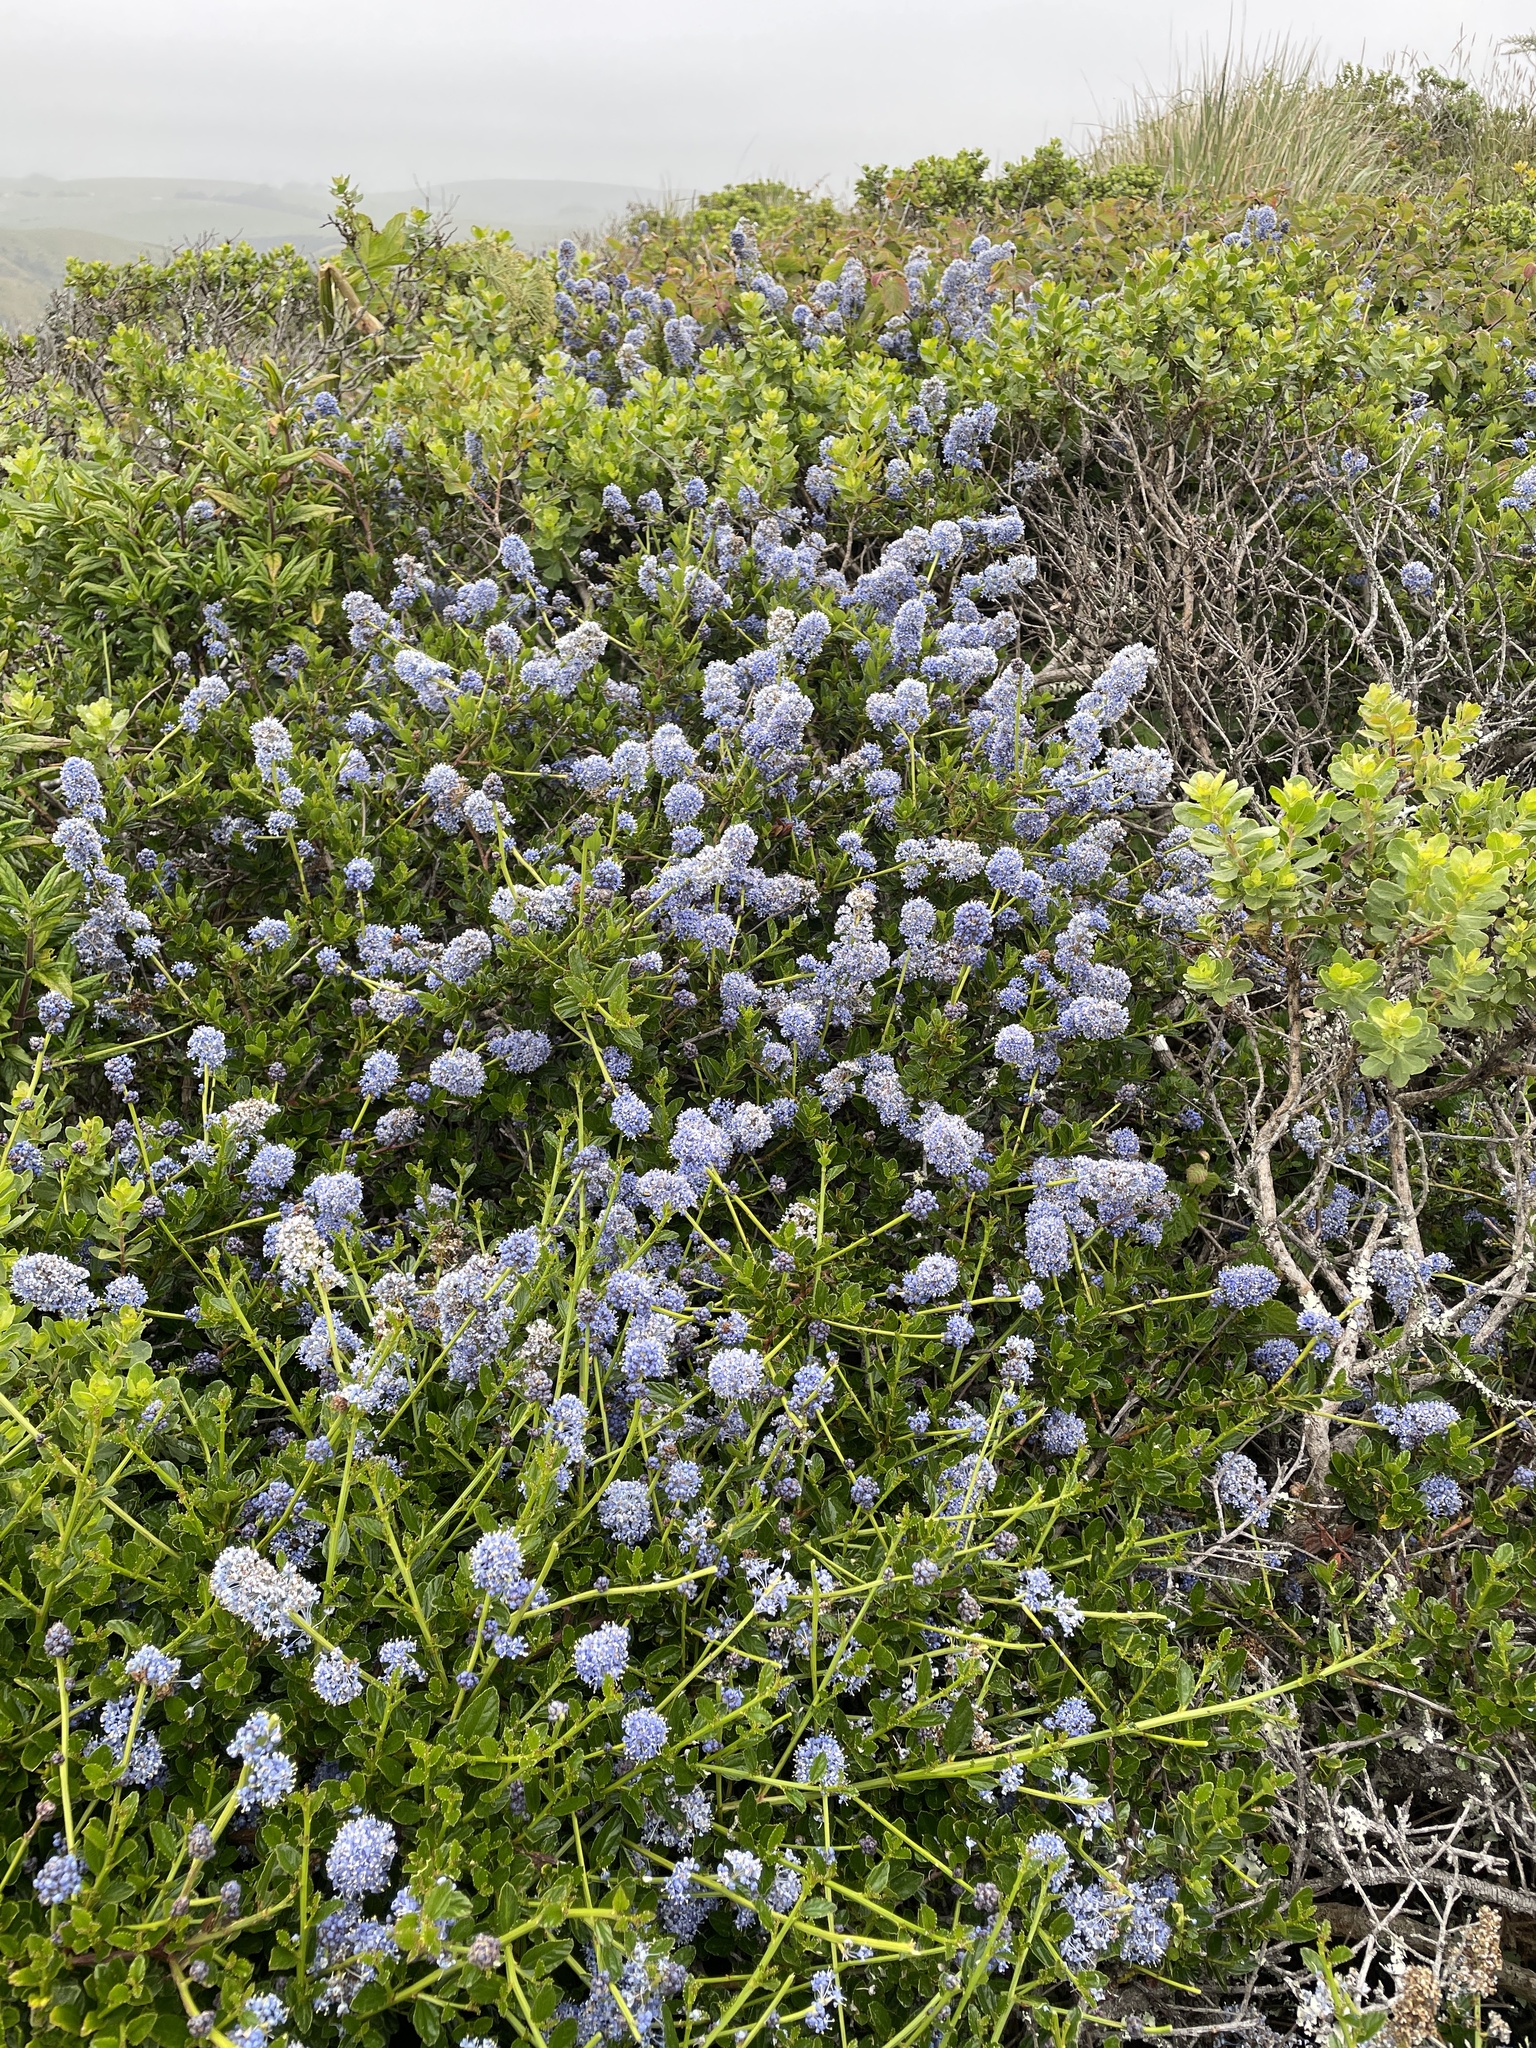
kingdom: Plantae
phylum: Tracheophyta
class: Magnoliopsida
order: Rosales
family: Rhamnaceae
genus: Ceanothus
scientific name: Ceanothus thyrsiflorus
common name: California-lilac
